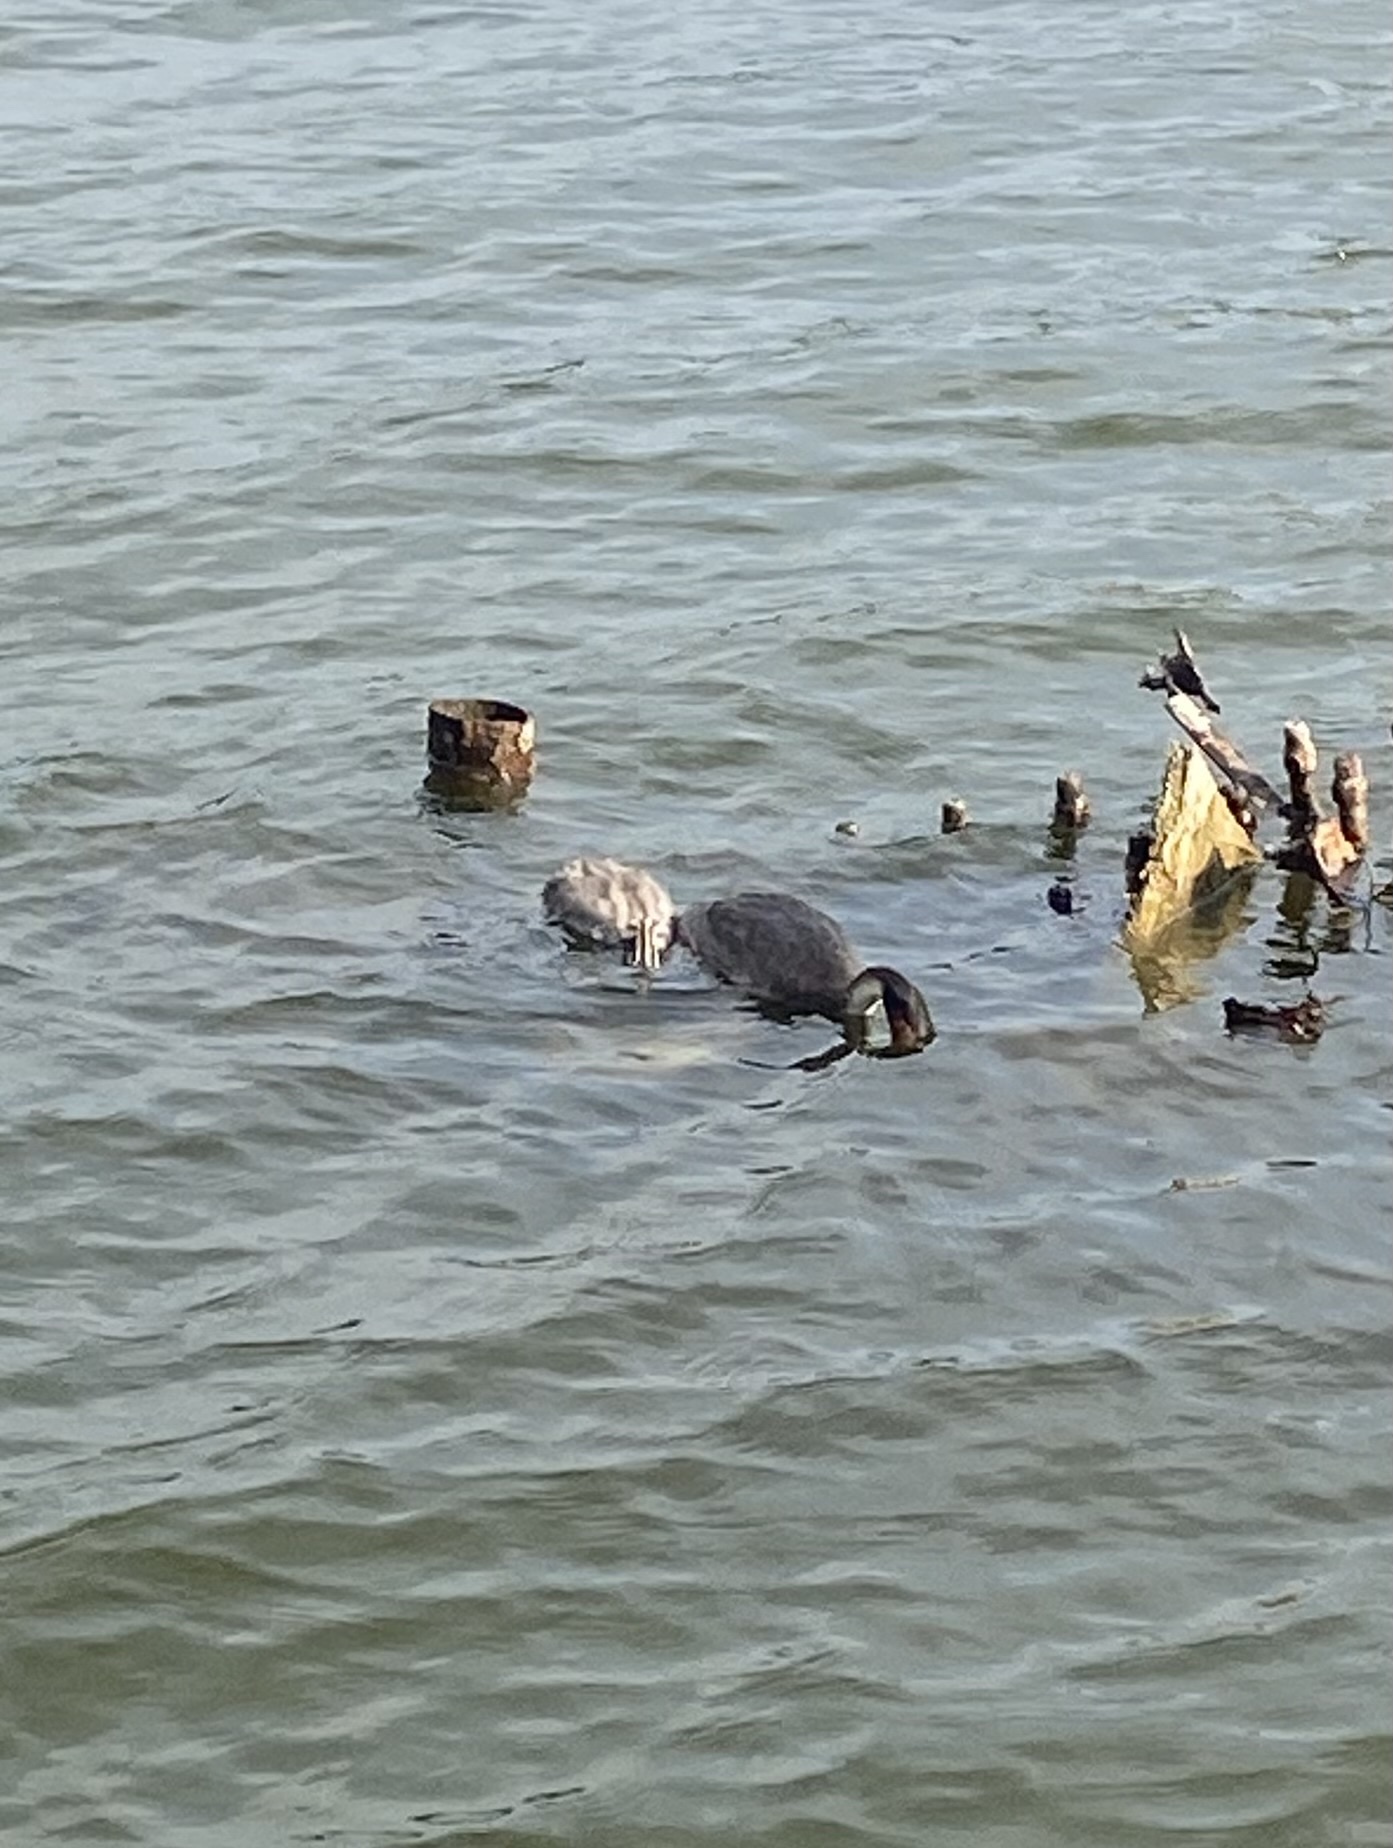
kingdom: Animalia
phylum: Chordata
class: Aves
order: Podicipediformes
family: Podicipedidae
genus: Podiceps
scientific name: Podiceps cristatus
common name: Great crested grebe
